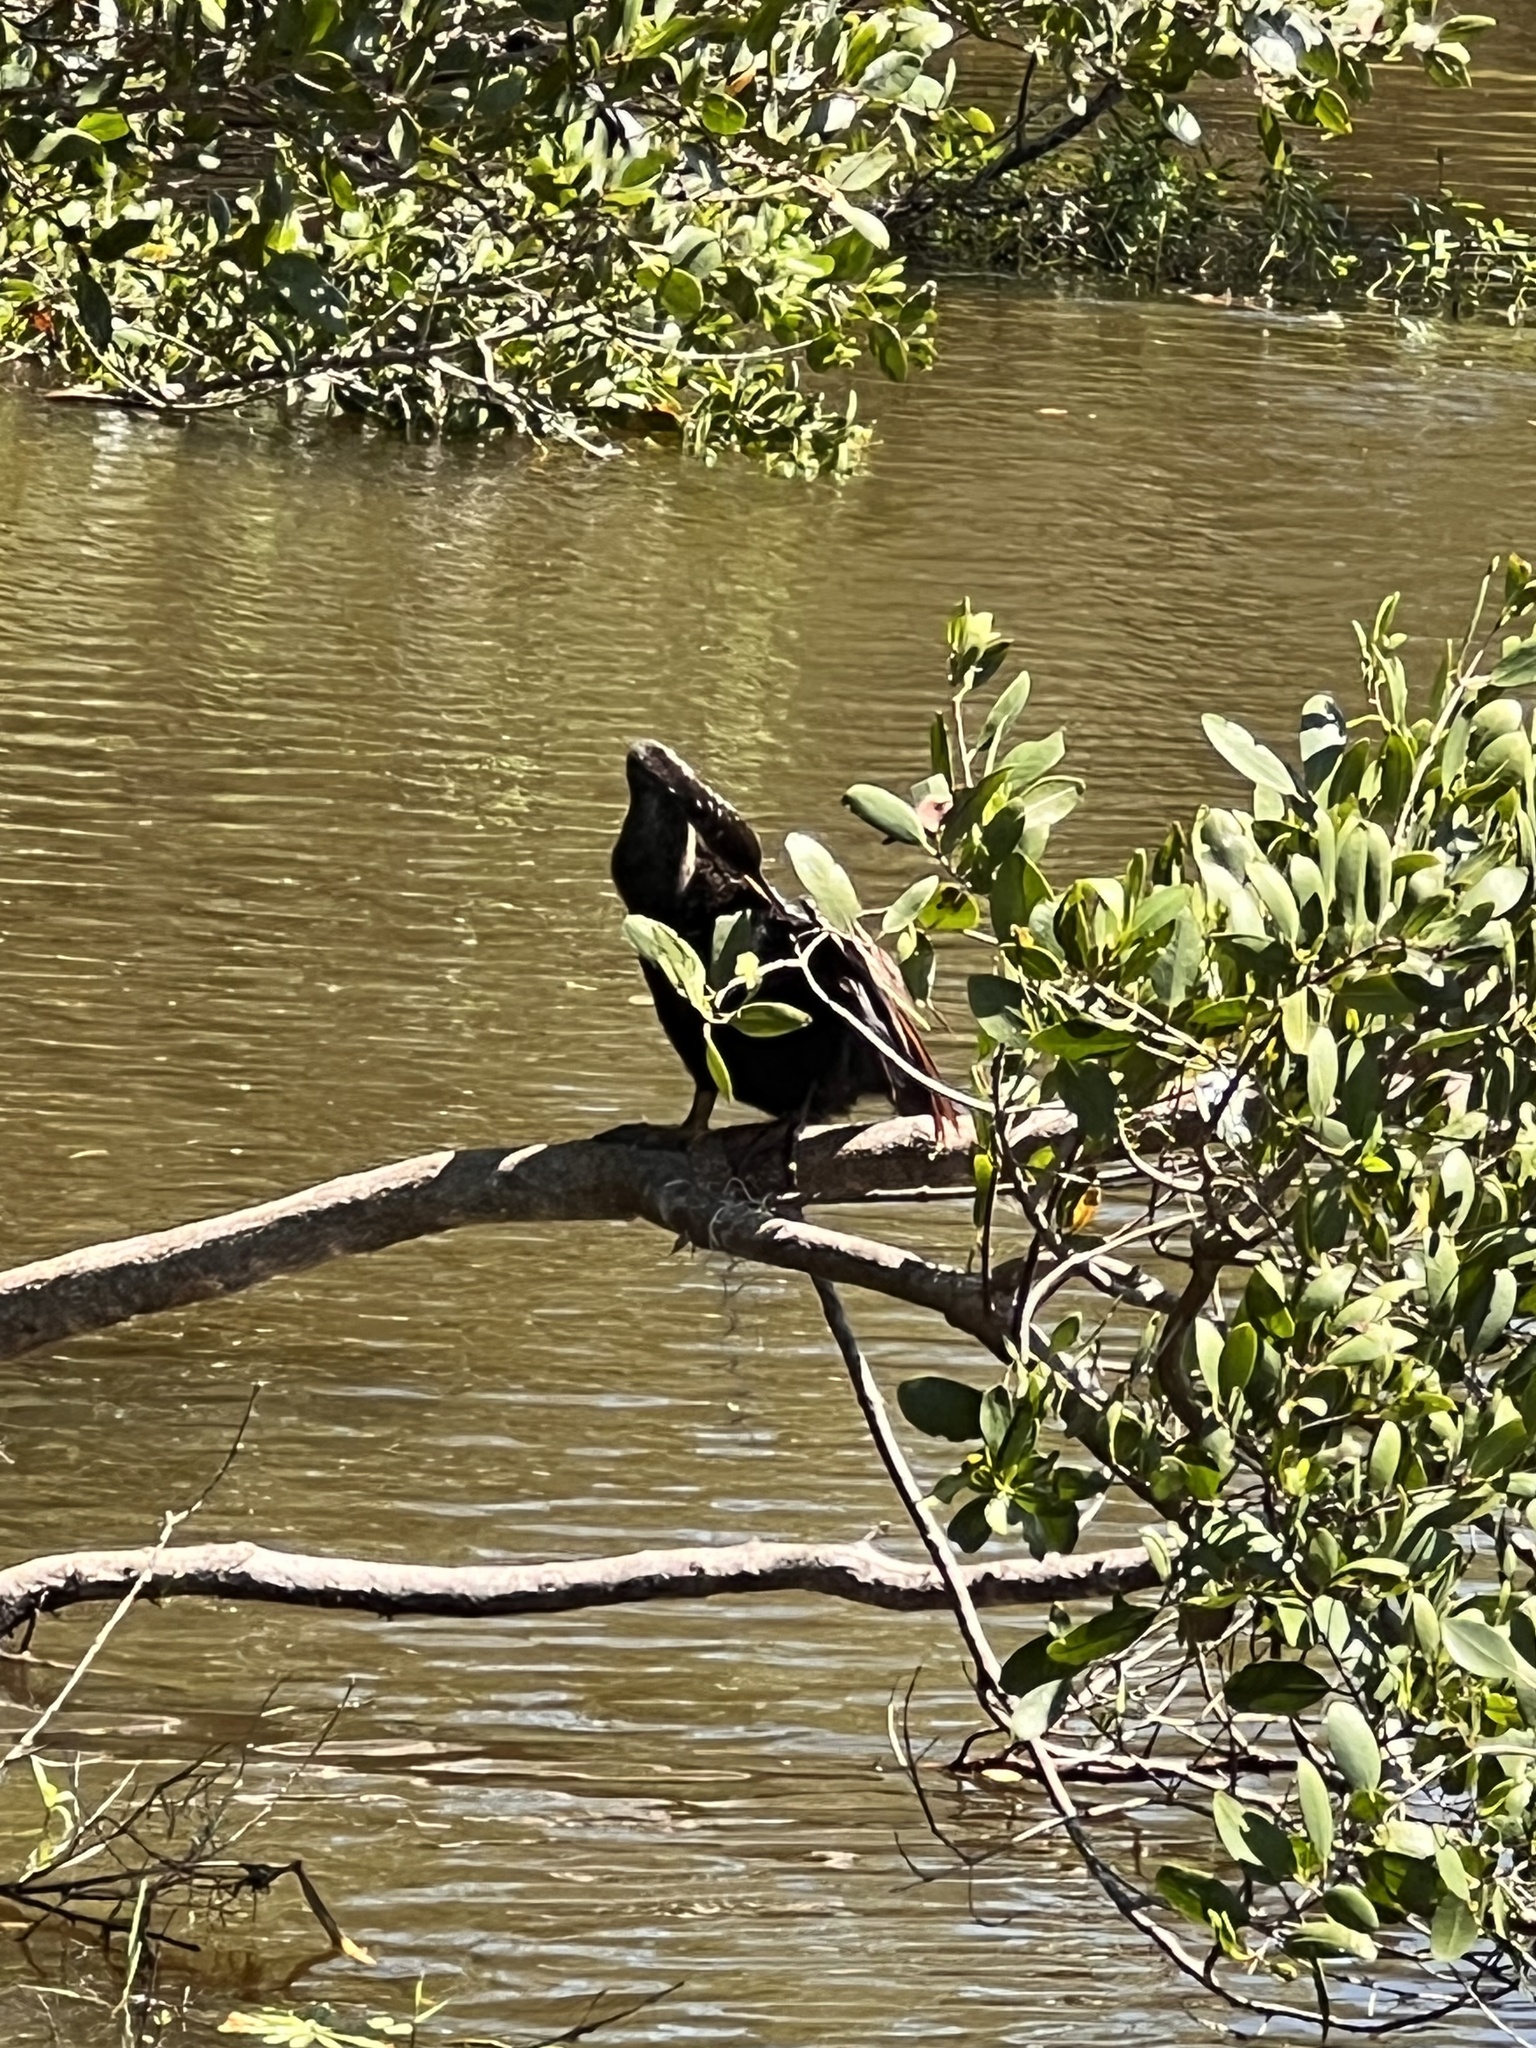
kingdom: Animalia
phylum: Chordata
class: Aves
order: Suliformes
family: Anhingidae
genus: Anhinga
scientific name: Anhinga anhinga
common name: Anhinga
